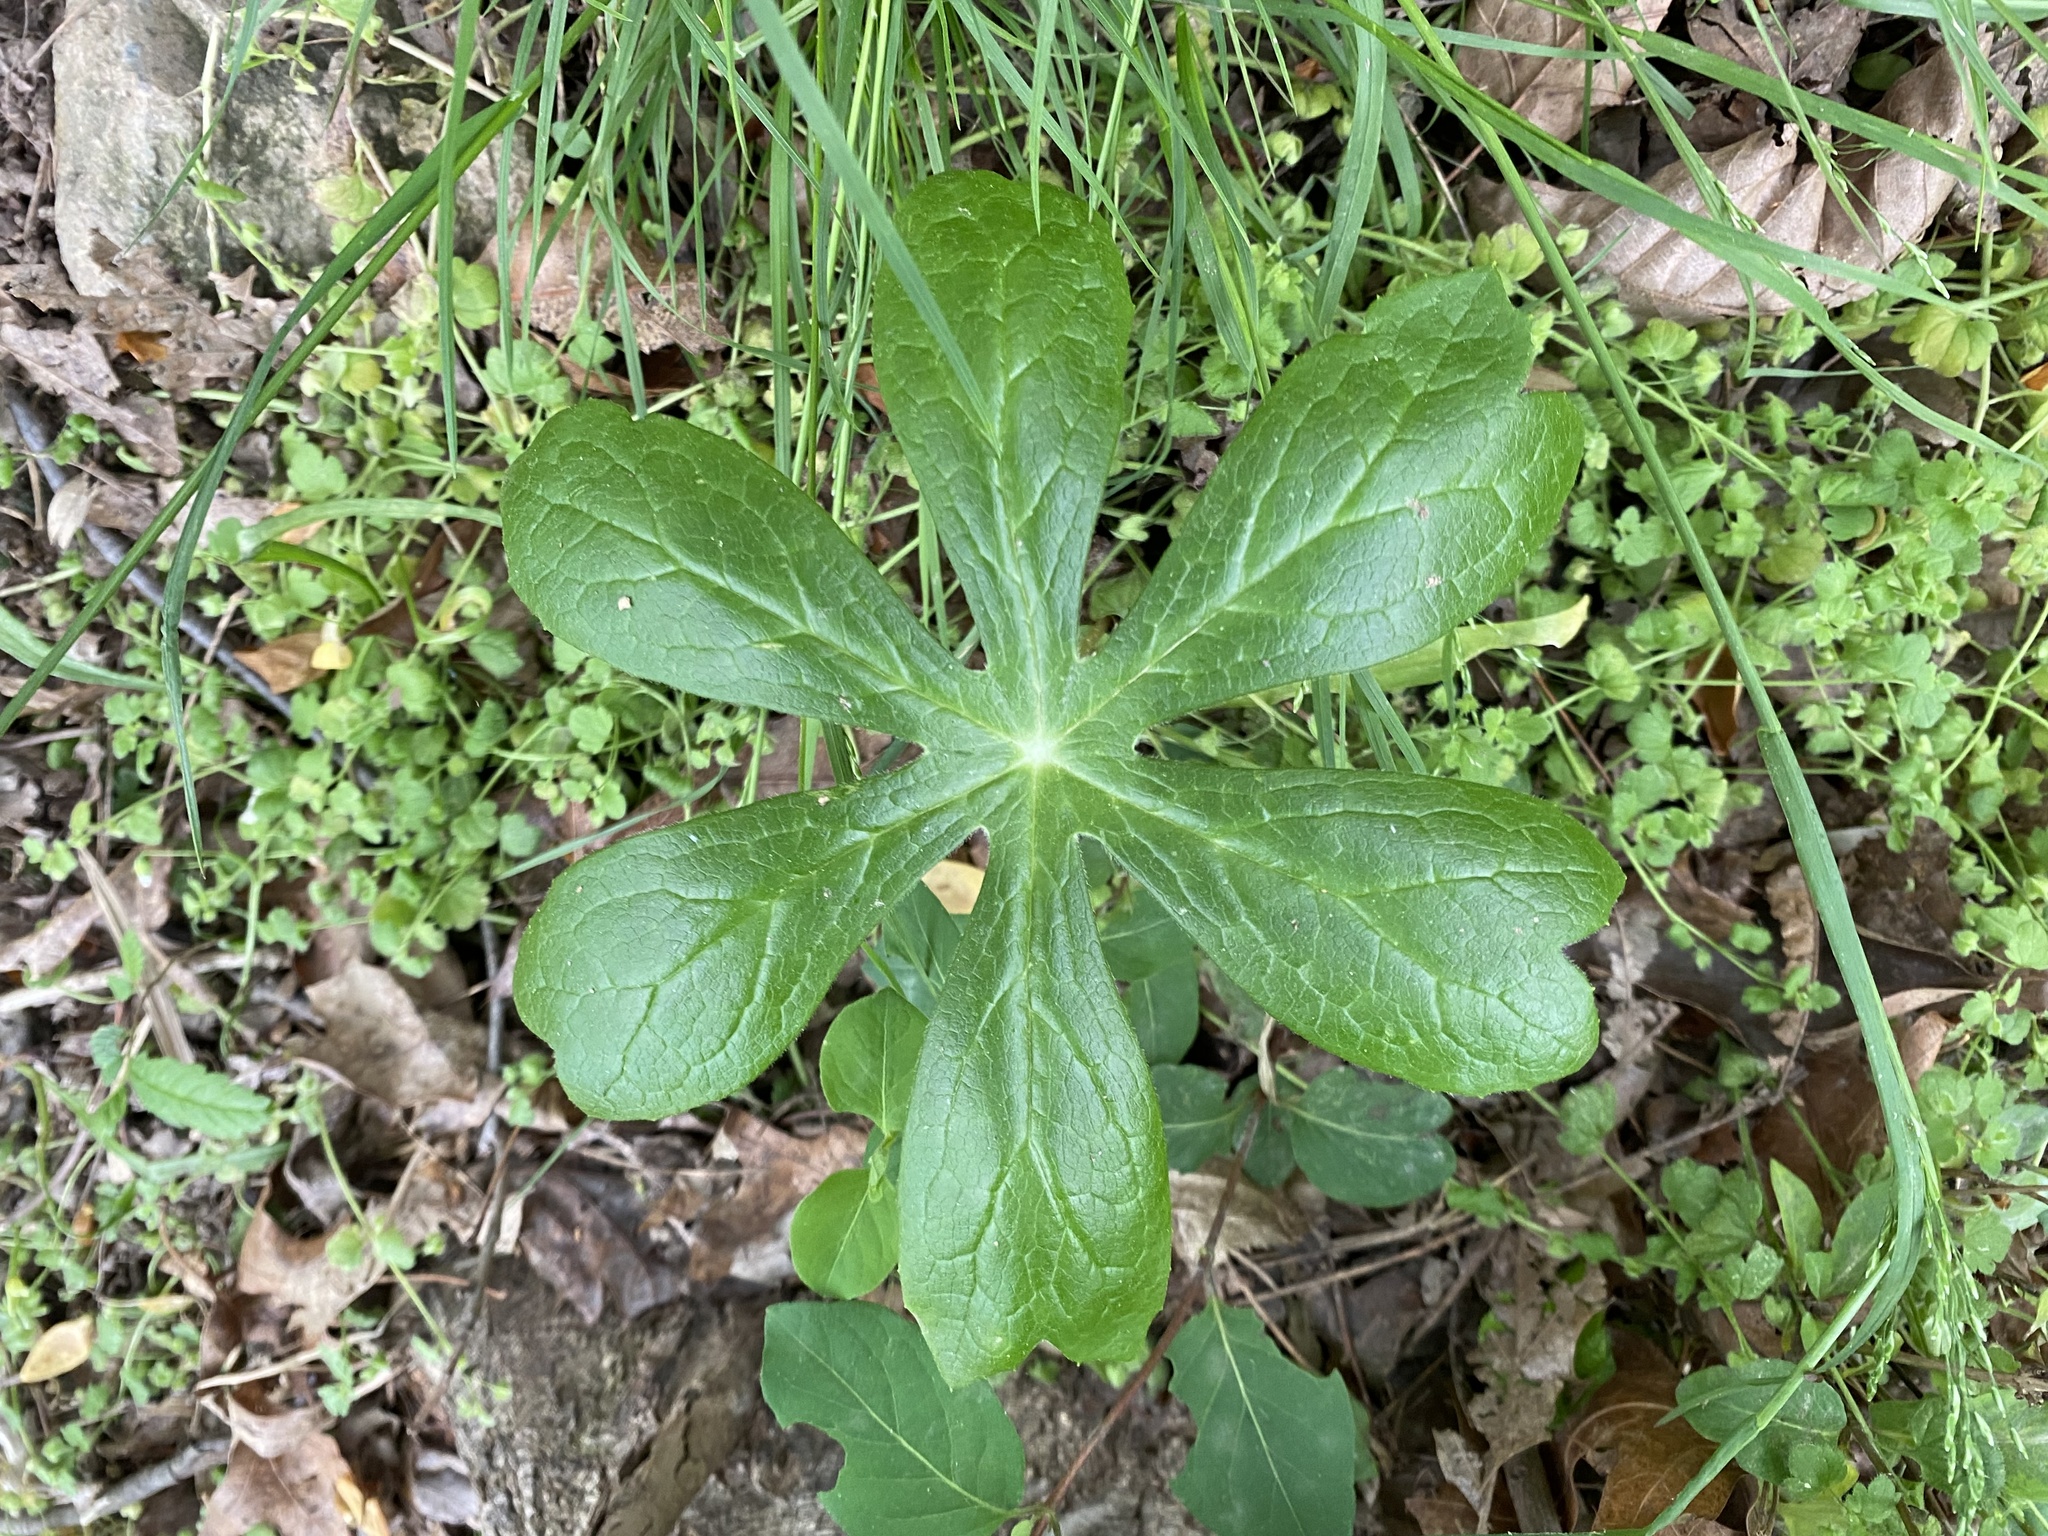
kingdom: Plantae
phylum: Tracheophyta
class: Magnoliopsida
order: Ranunculales
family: Berberidaceae
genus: Podophyllum
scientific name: Podophyllum peltatum
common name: Wild mandrake
